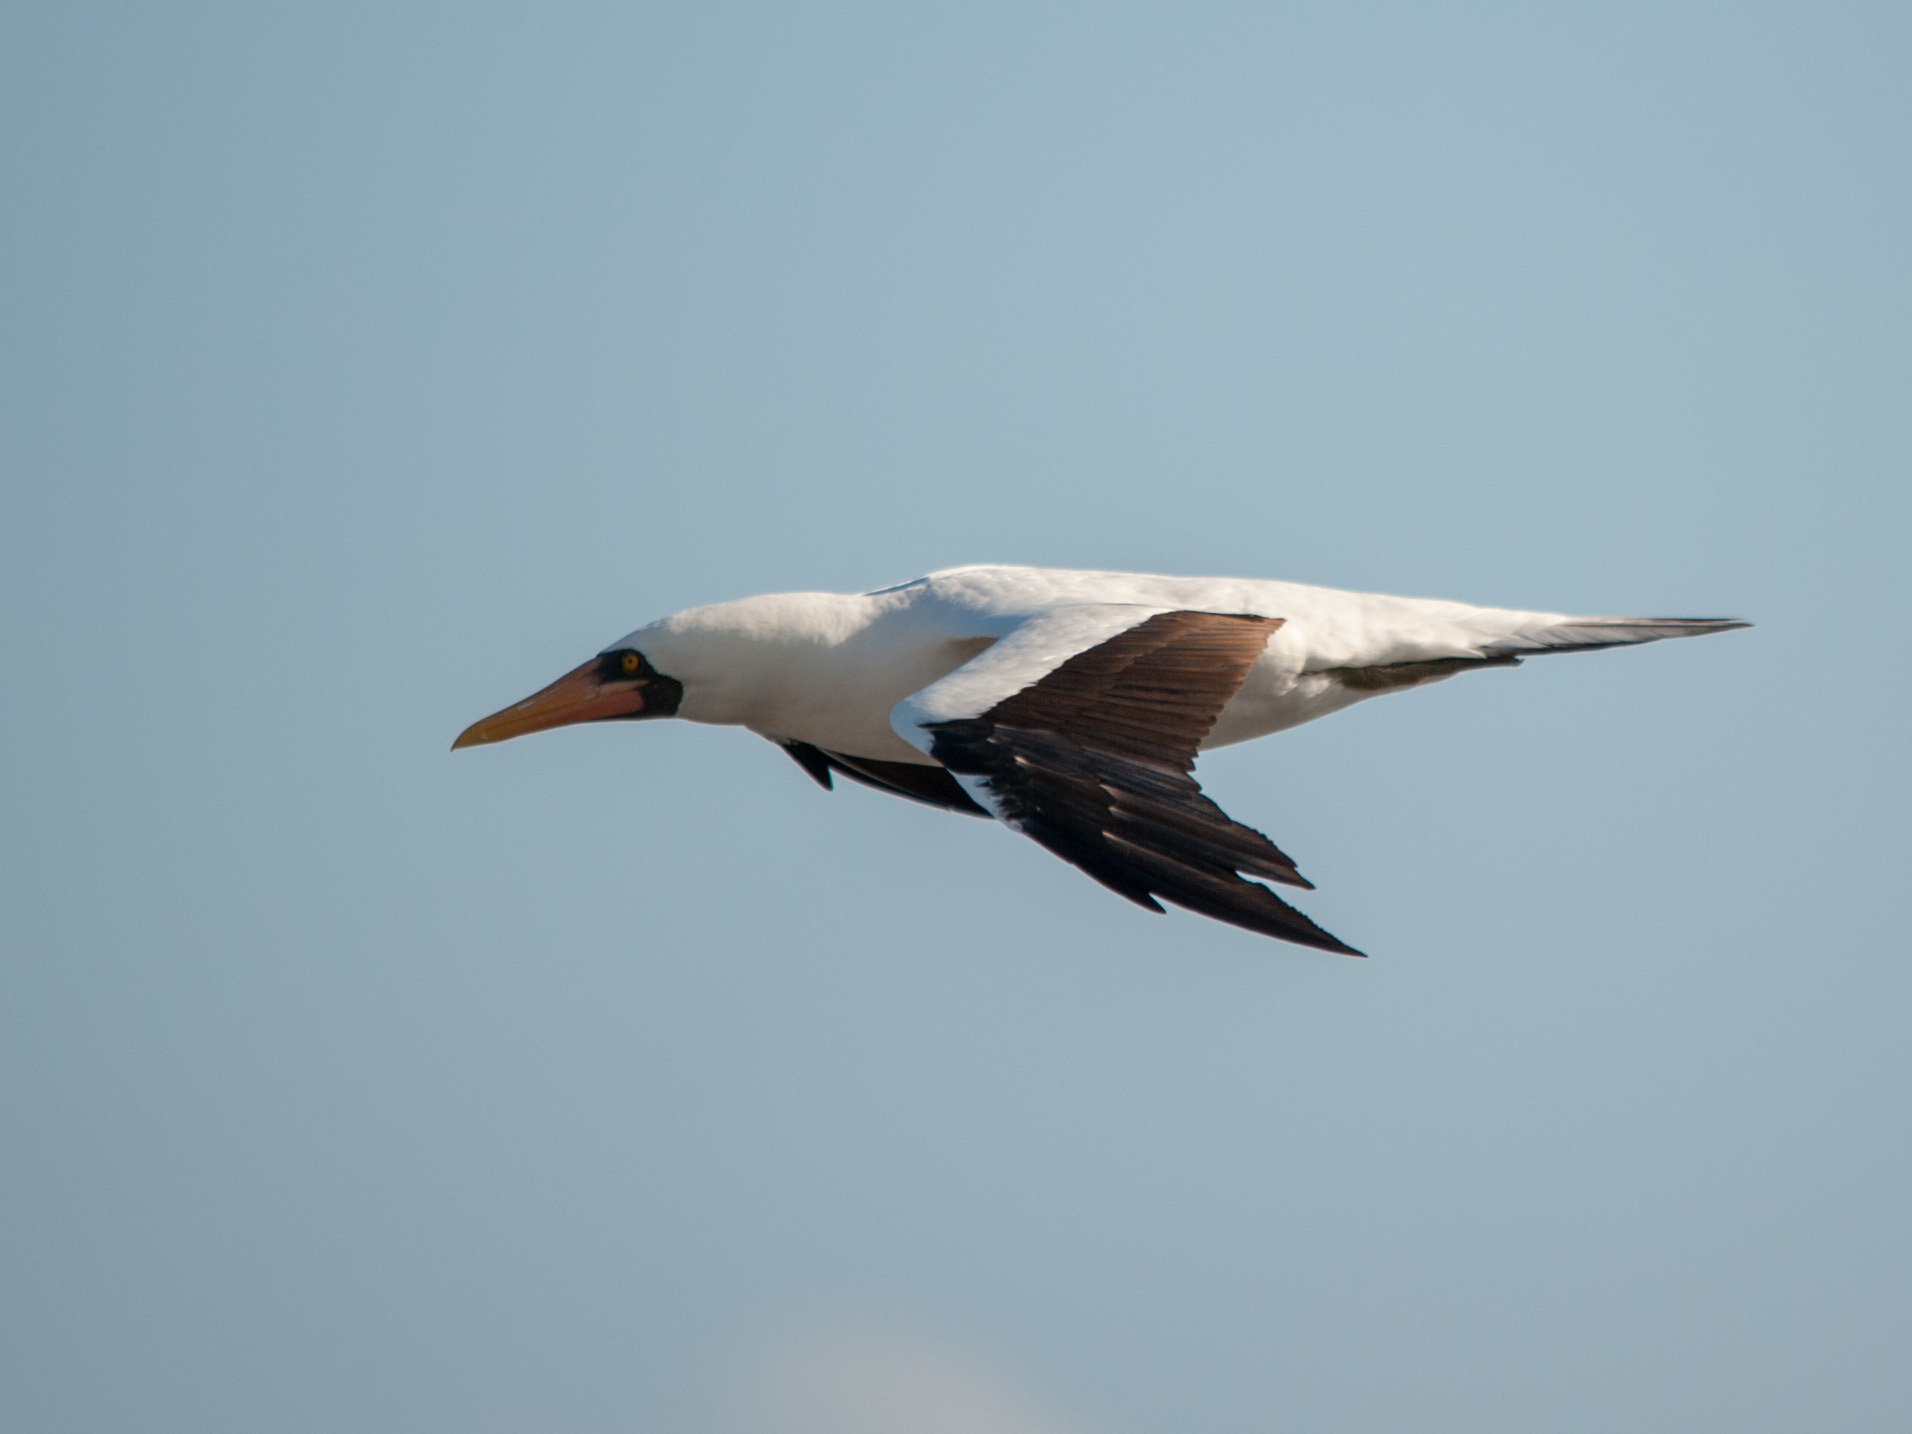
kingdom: Animalia
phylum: Chordata
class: Aves
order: Suliformes
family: Sulidae
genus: Sula
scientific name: Sula granti
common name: Nazca booby
